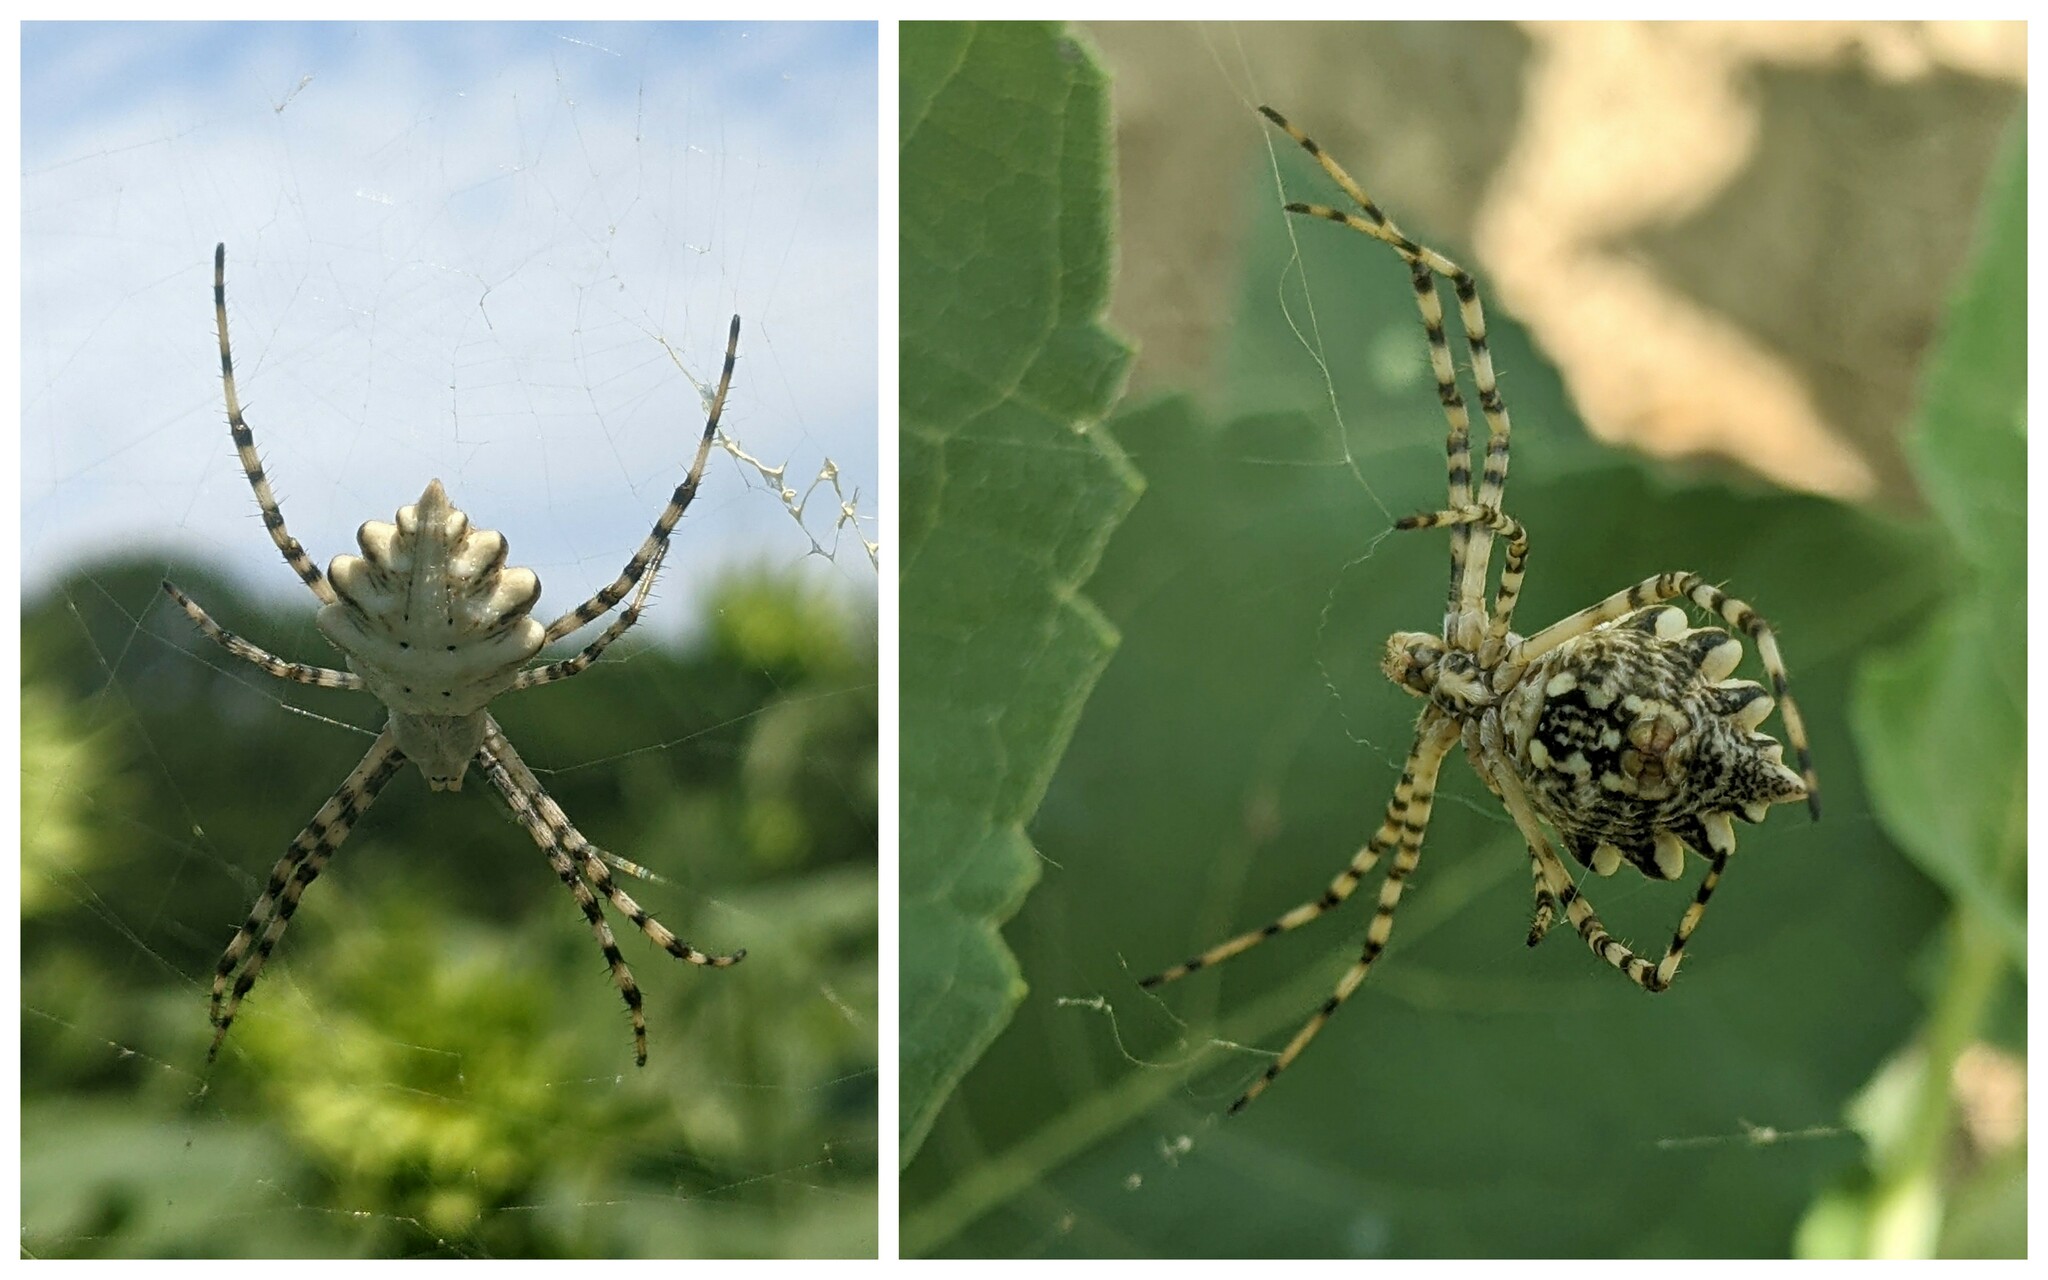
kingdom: Animalia
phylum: Arthropoda
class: Arachnida
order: Araneae
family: Araneidae
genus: Argiope
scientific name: Argiope lobata
